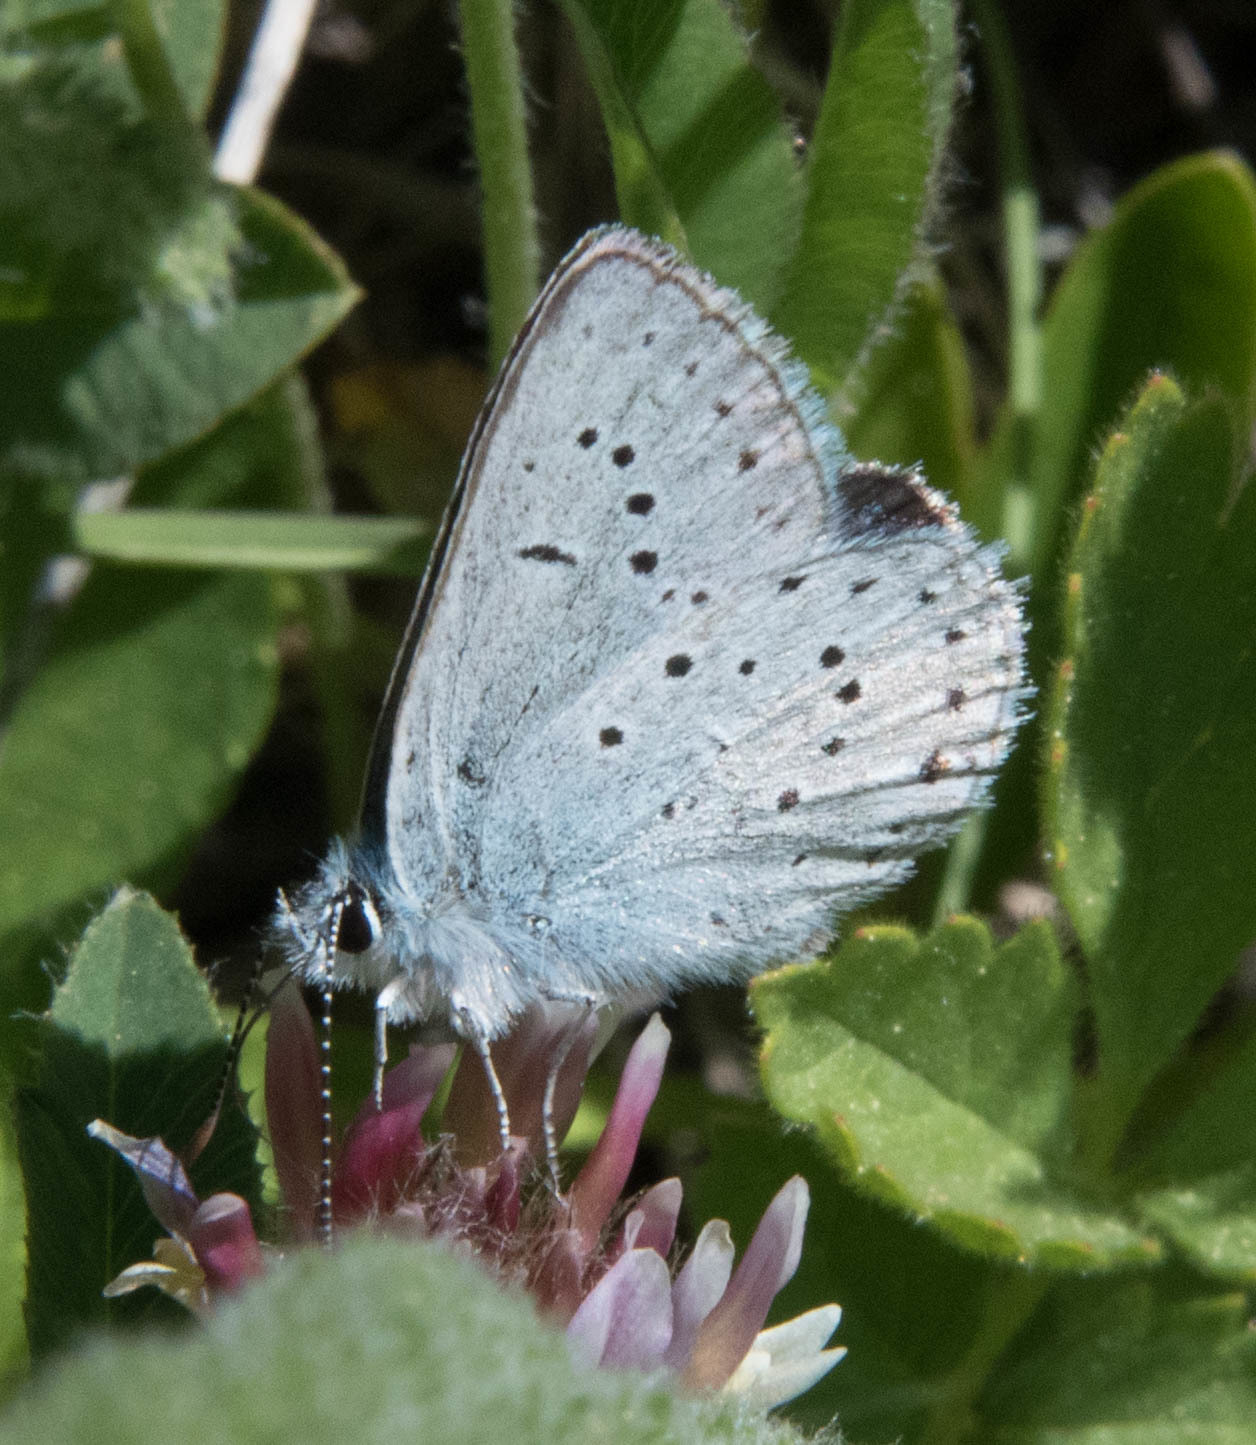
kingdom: Animalia
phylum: Arthropoda
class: Insecta
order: Lepidoptera
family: Lycaenidae
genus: Icaricia
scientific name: Icaricia saepiolus
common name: Greenish blue
